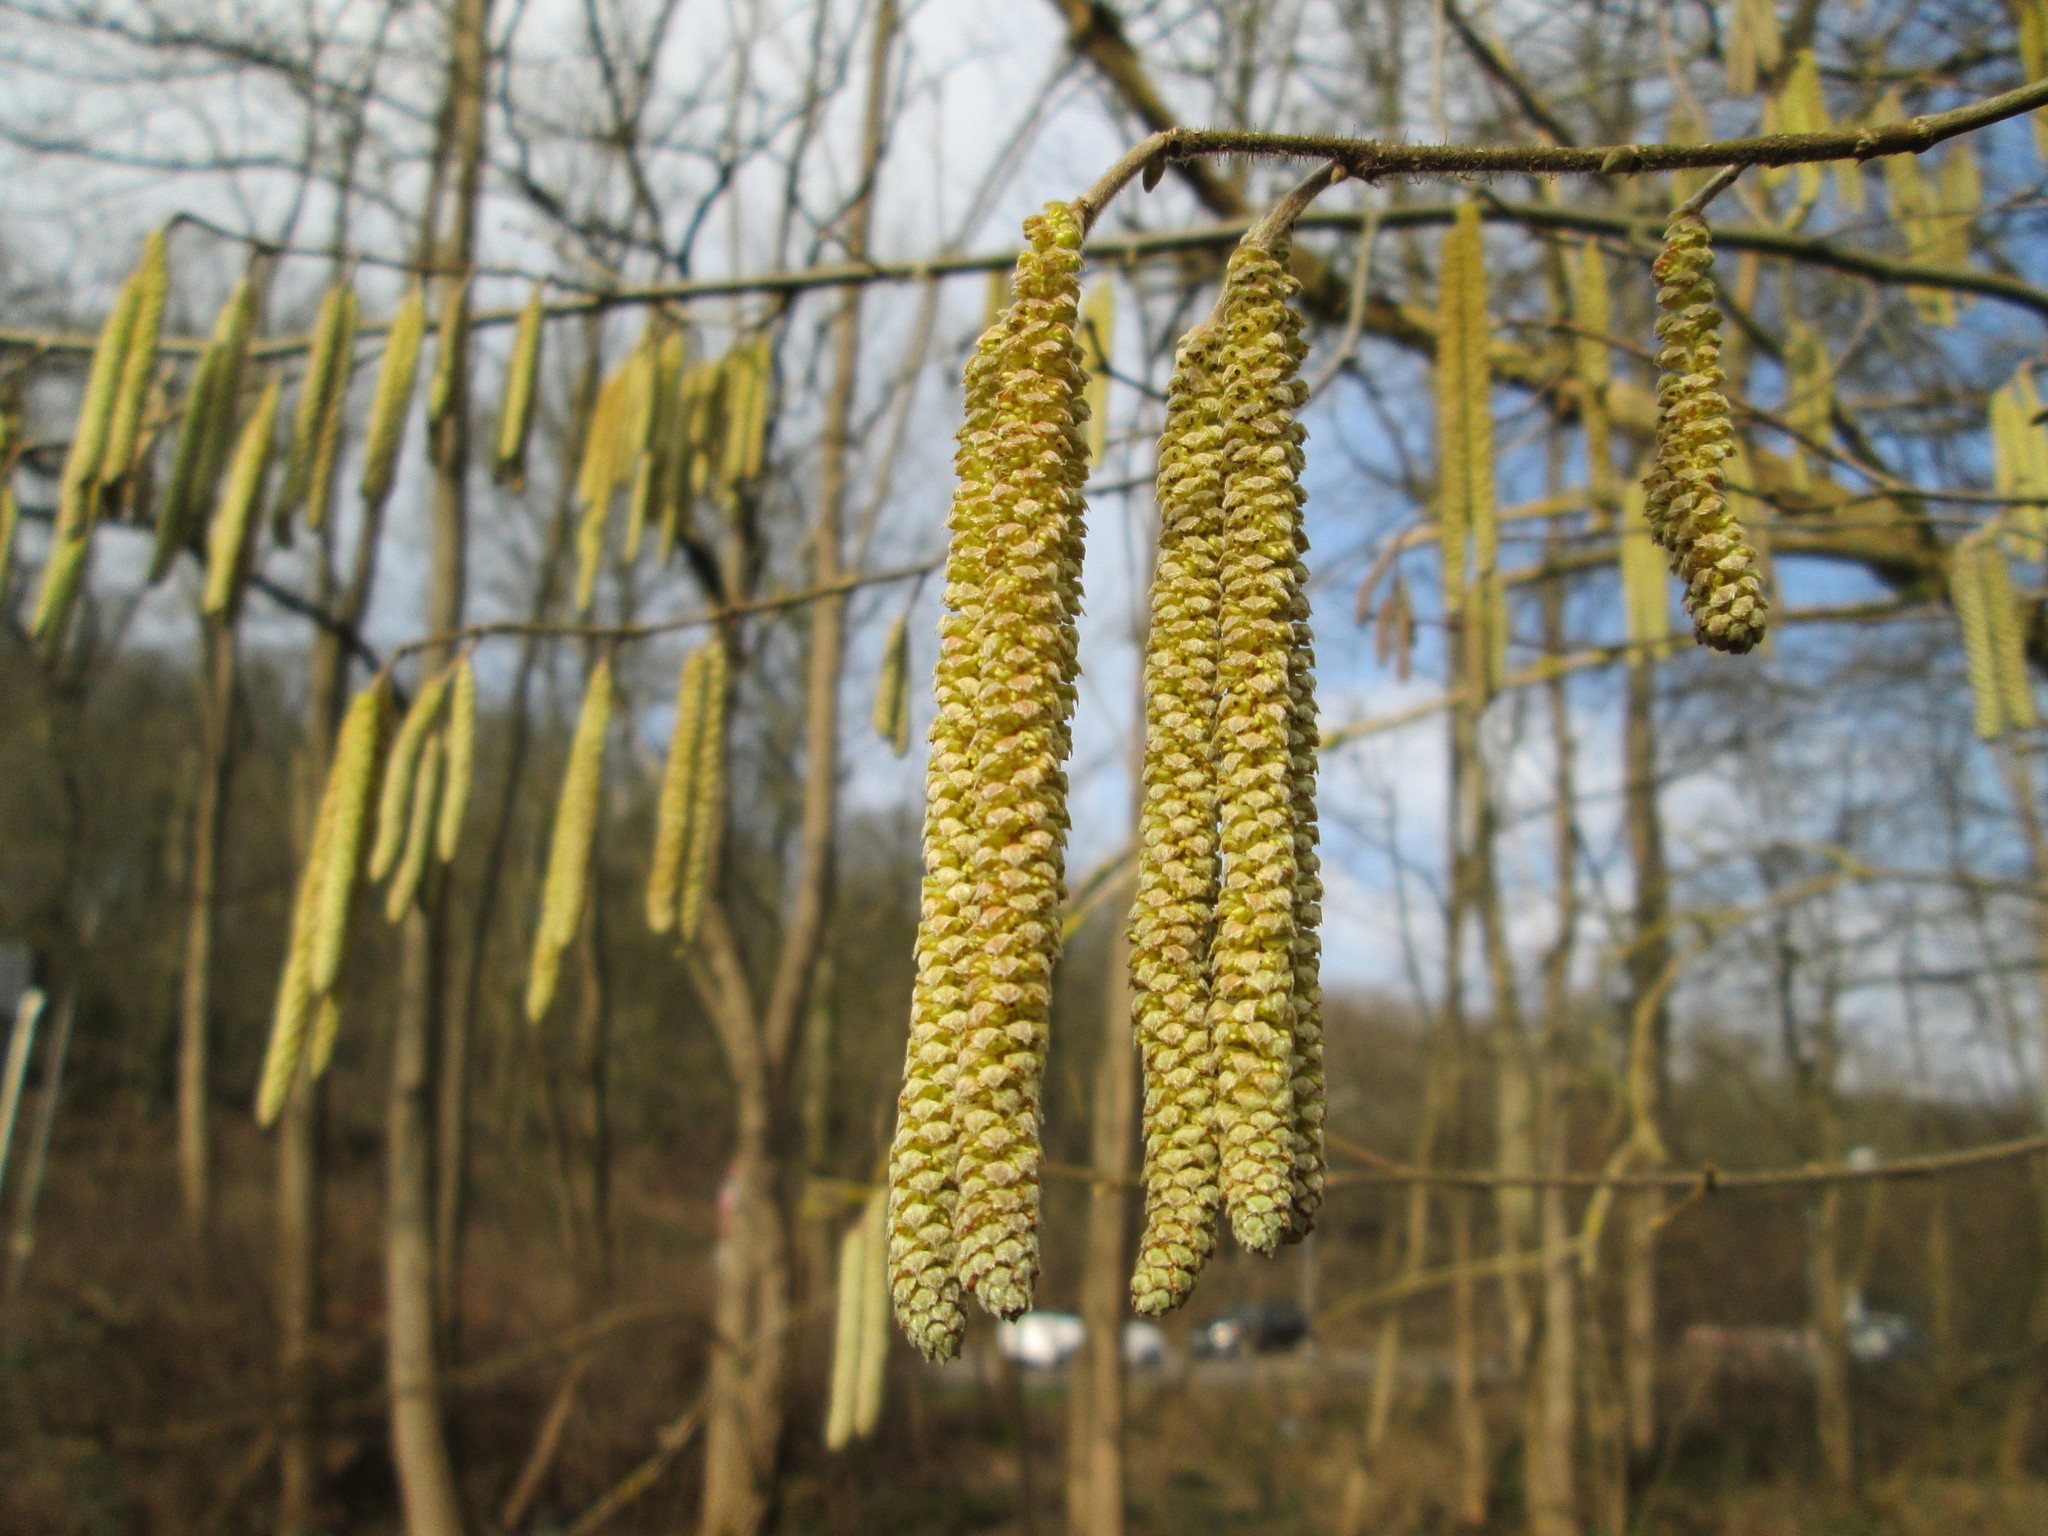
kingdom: Plantae
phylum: Tracheophyta
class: Magnoliopsida
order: Fagales
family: Betulaceae
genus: Corylus
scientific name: Corylus avellana
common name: European hazel
